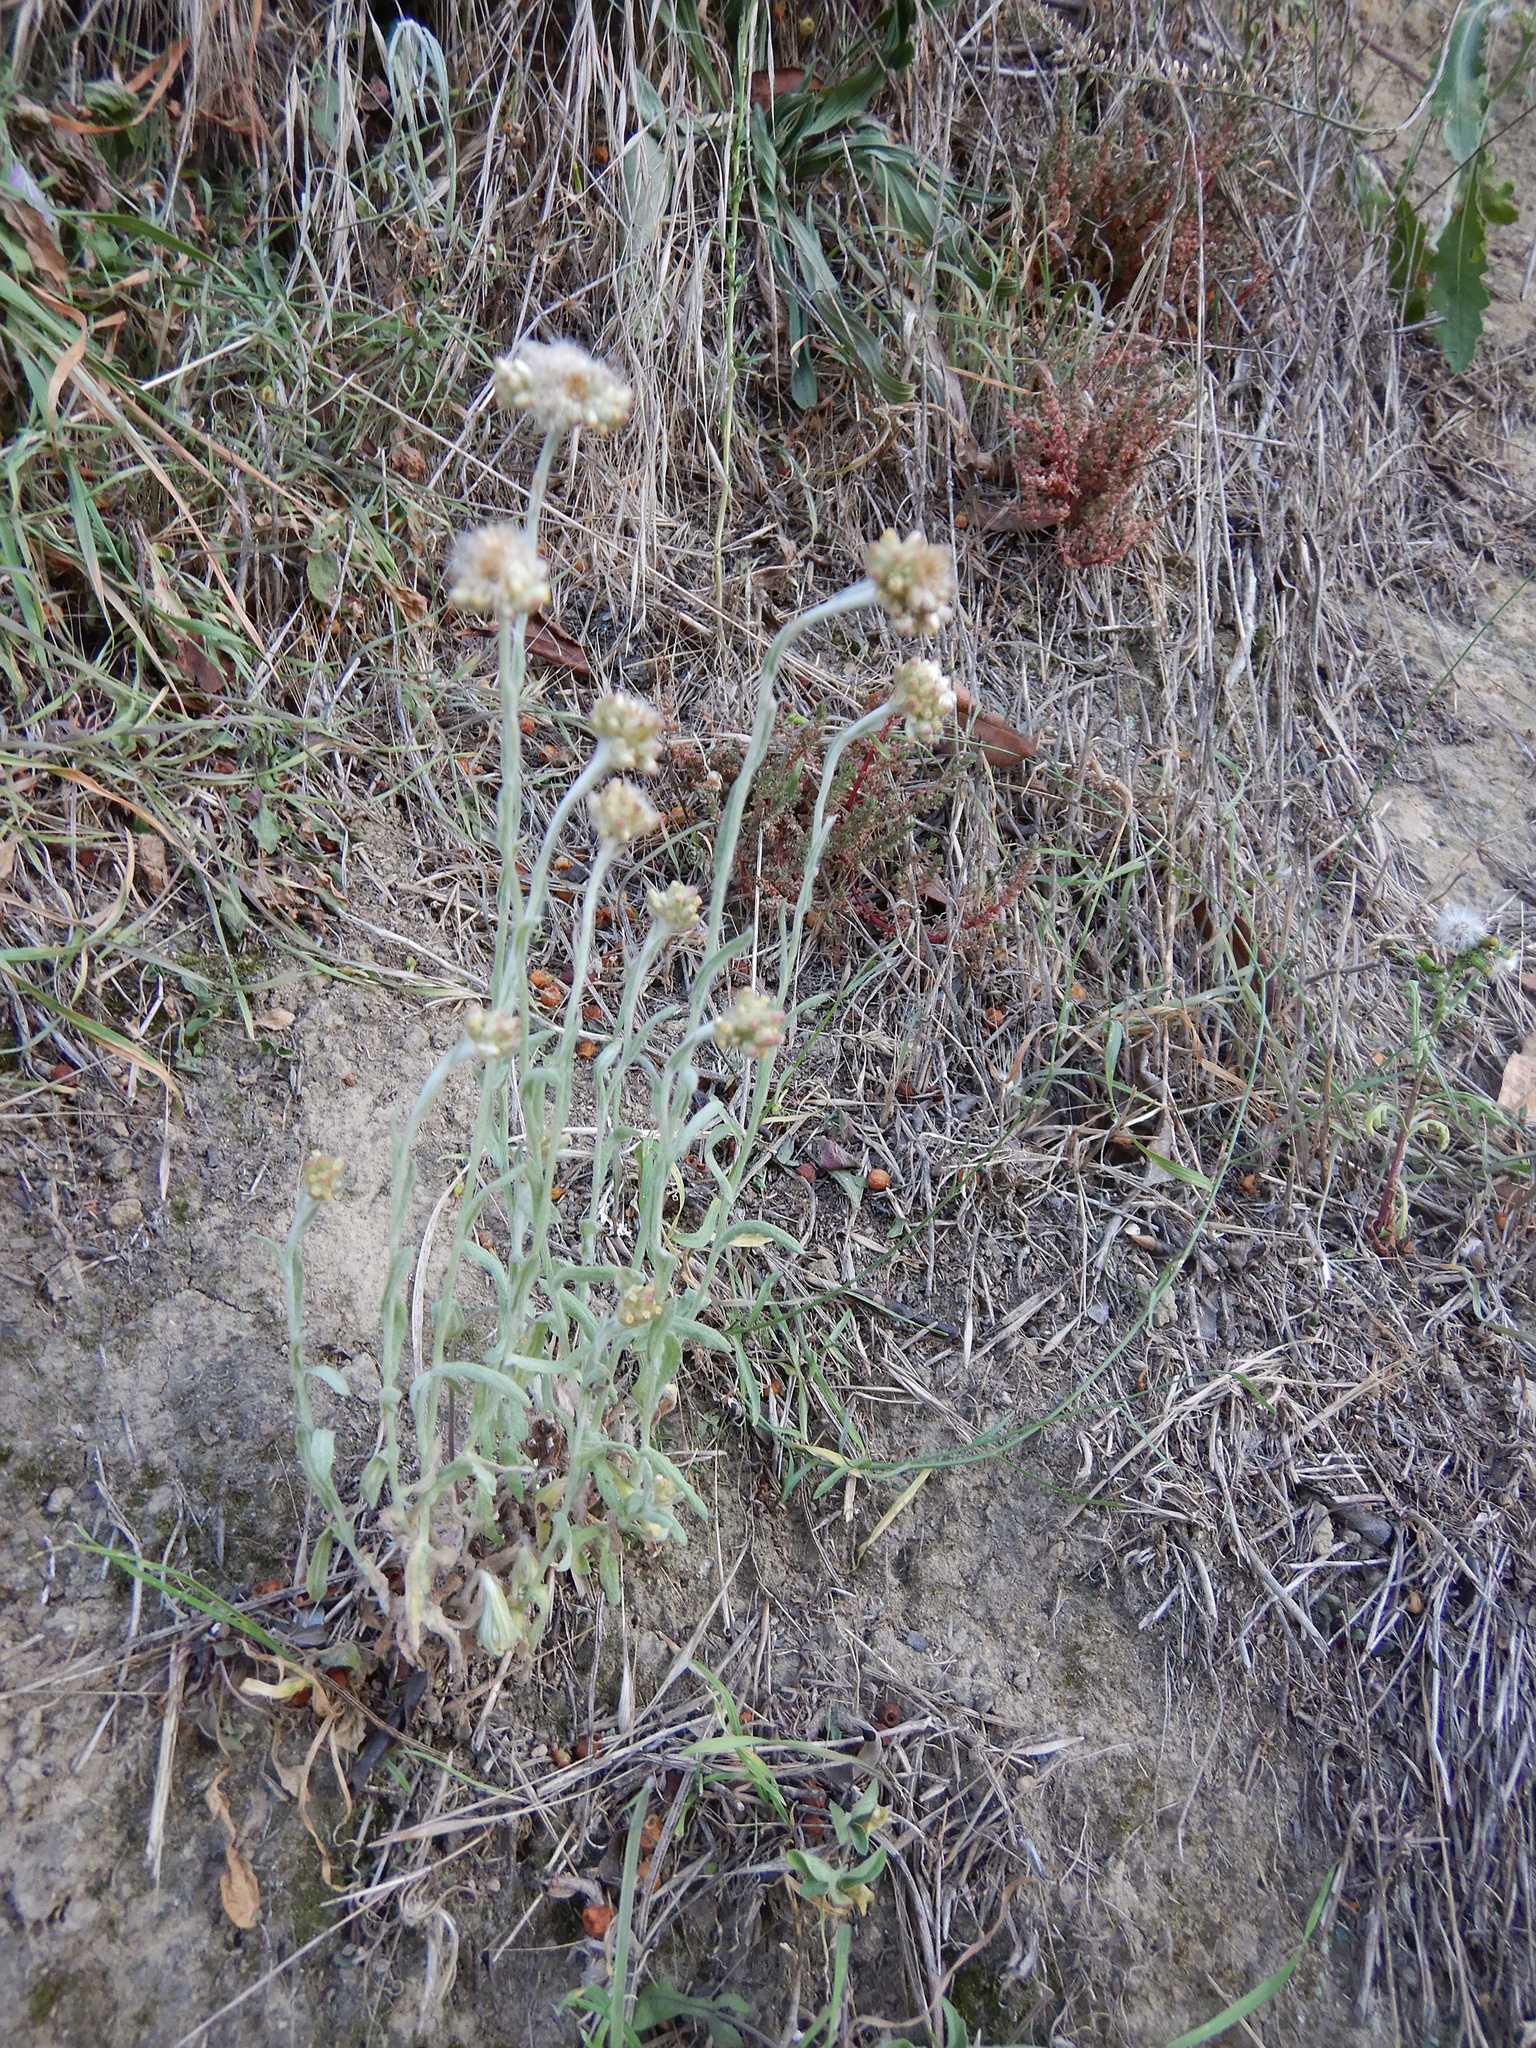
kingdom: Plantae
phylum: Tracheophyta
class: Magnoliopsida
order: Asterales
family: Asteraceae
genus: Helichrysum
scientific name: Helichrysum luteoalbum
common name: Daisy
